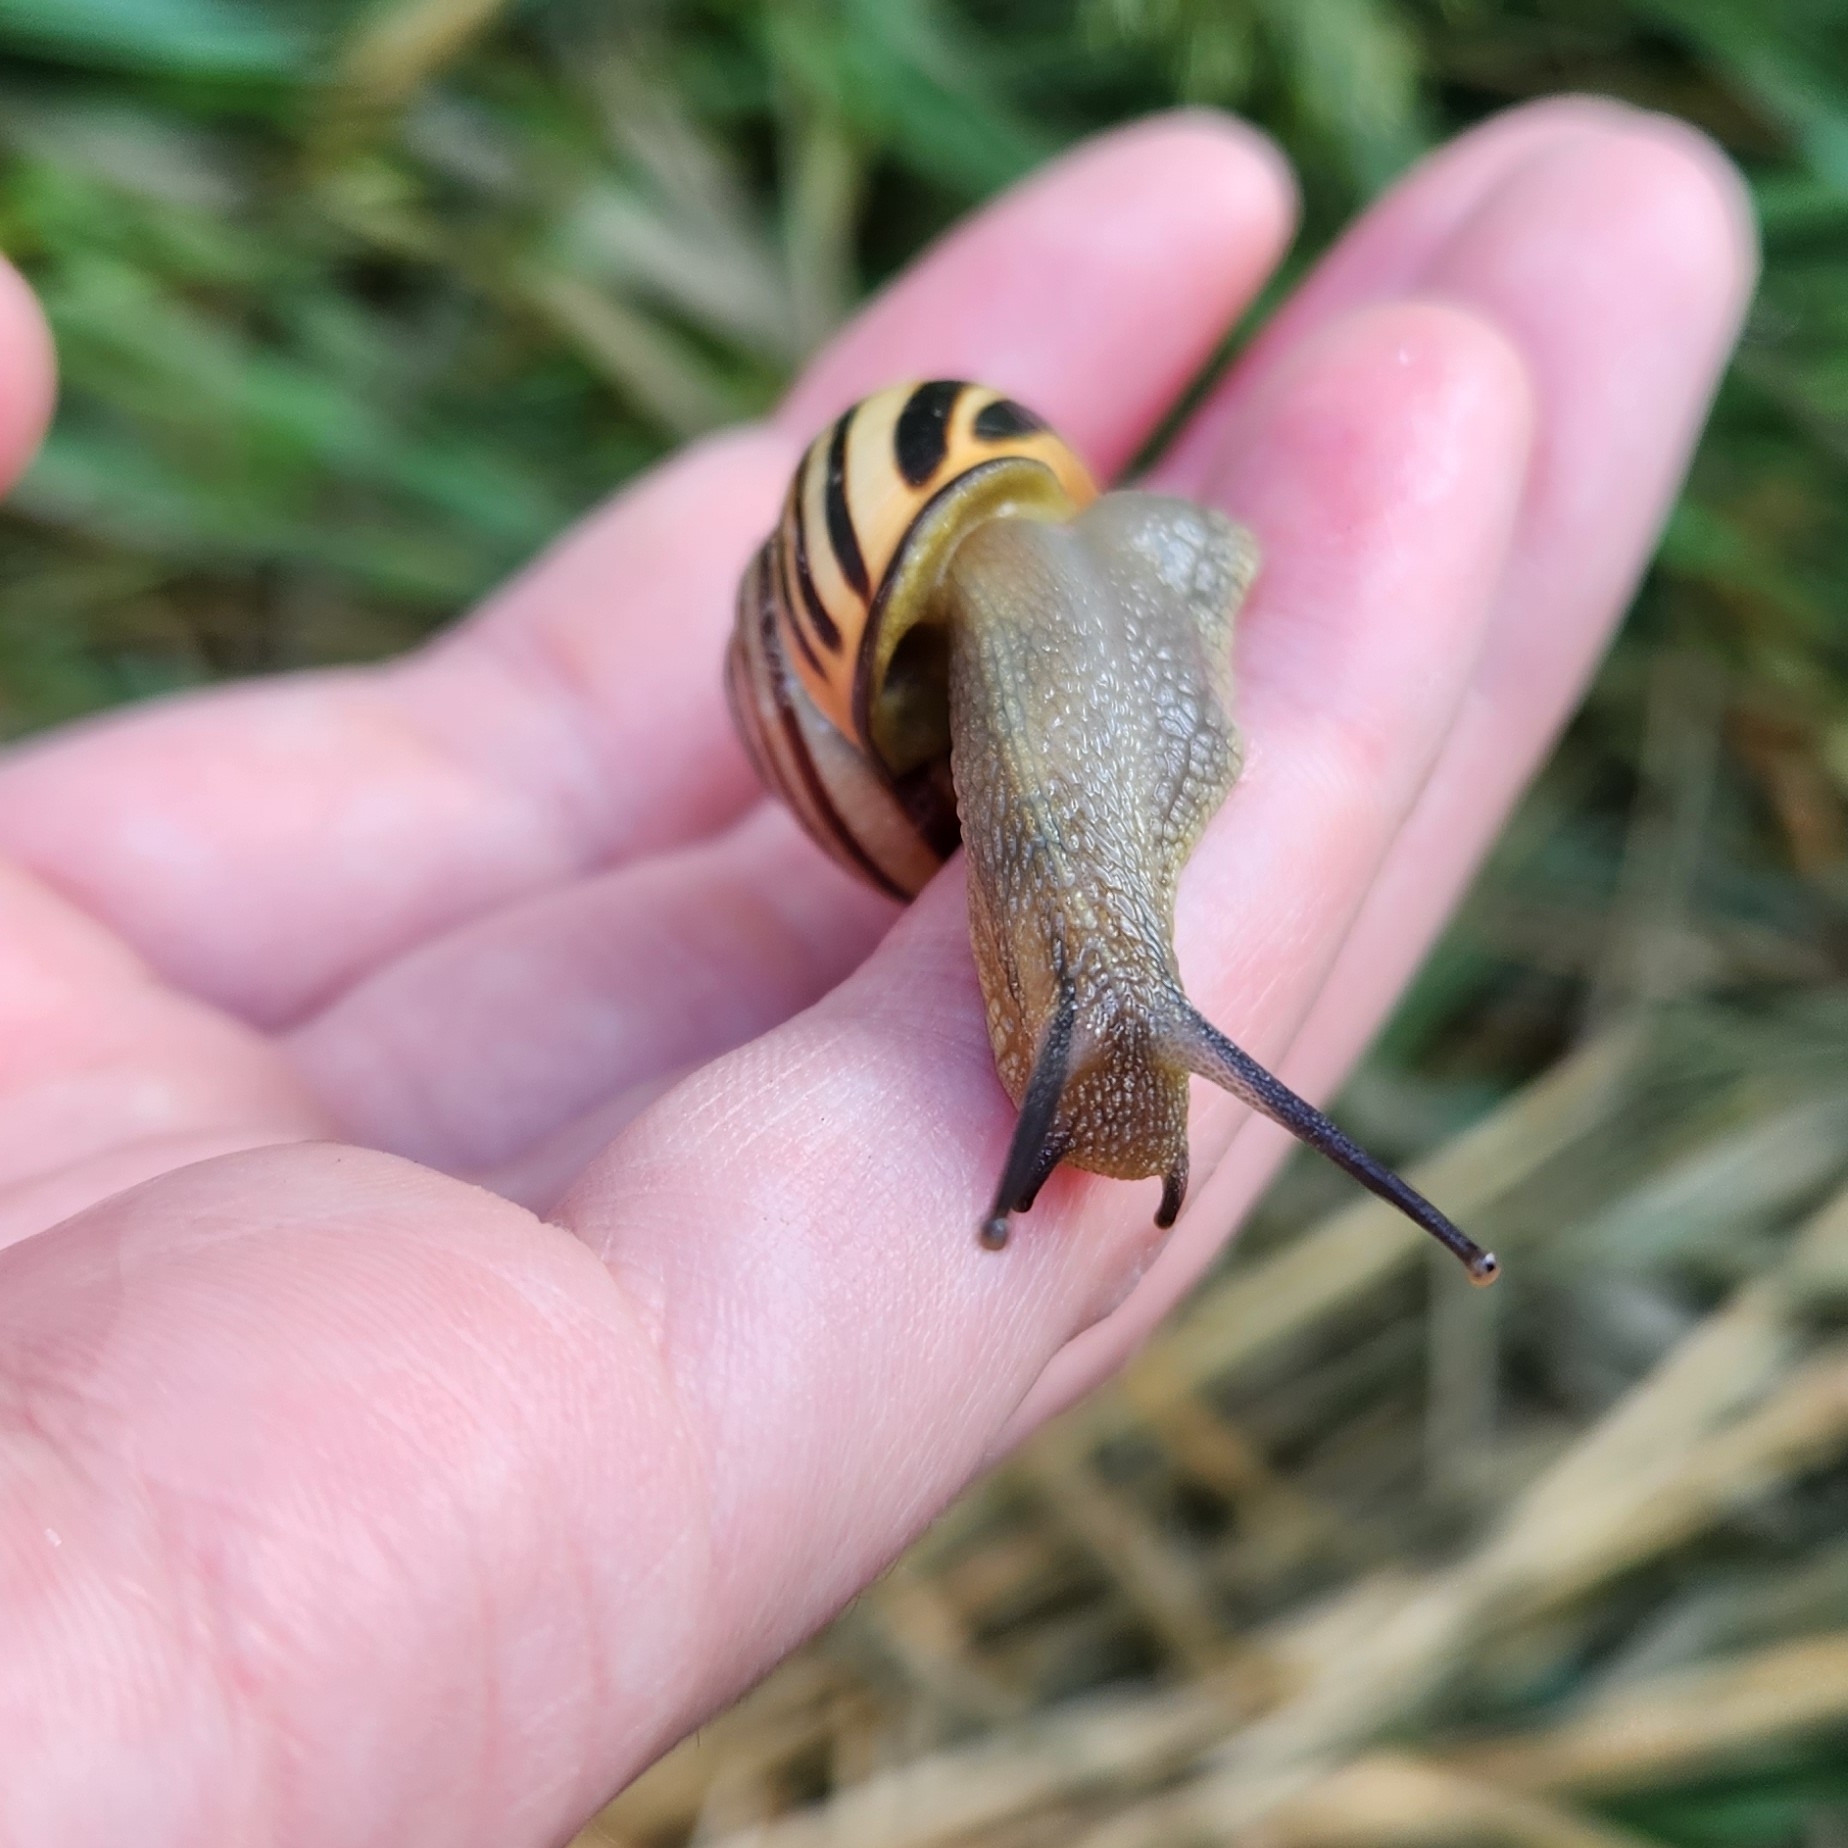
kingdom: Animalia
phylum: Mollusca
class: Gastropoda
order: Stylommatophora
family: Helicidae
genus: Cepaea
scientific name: Cepaea nemoralis
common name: Grovesnail
